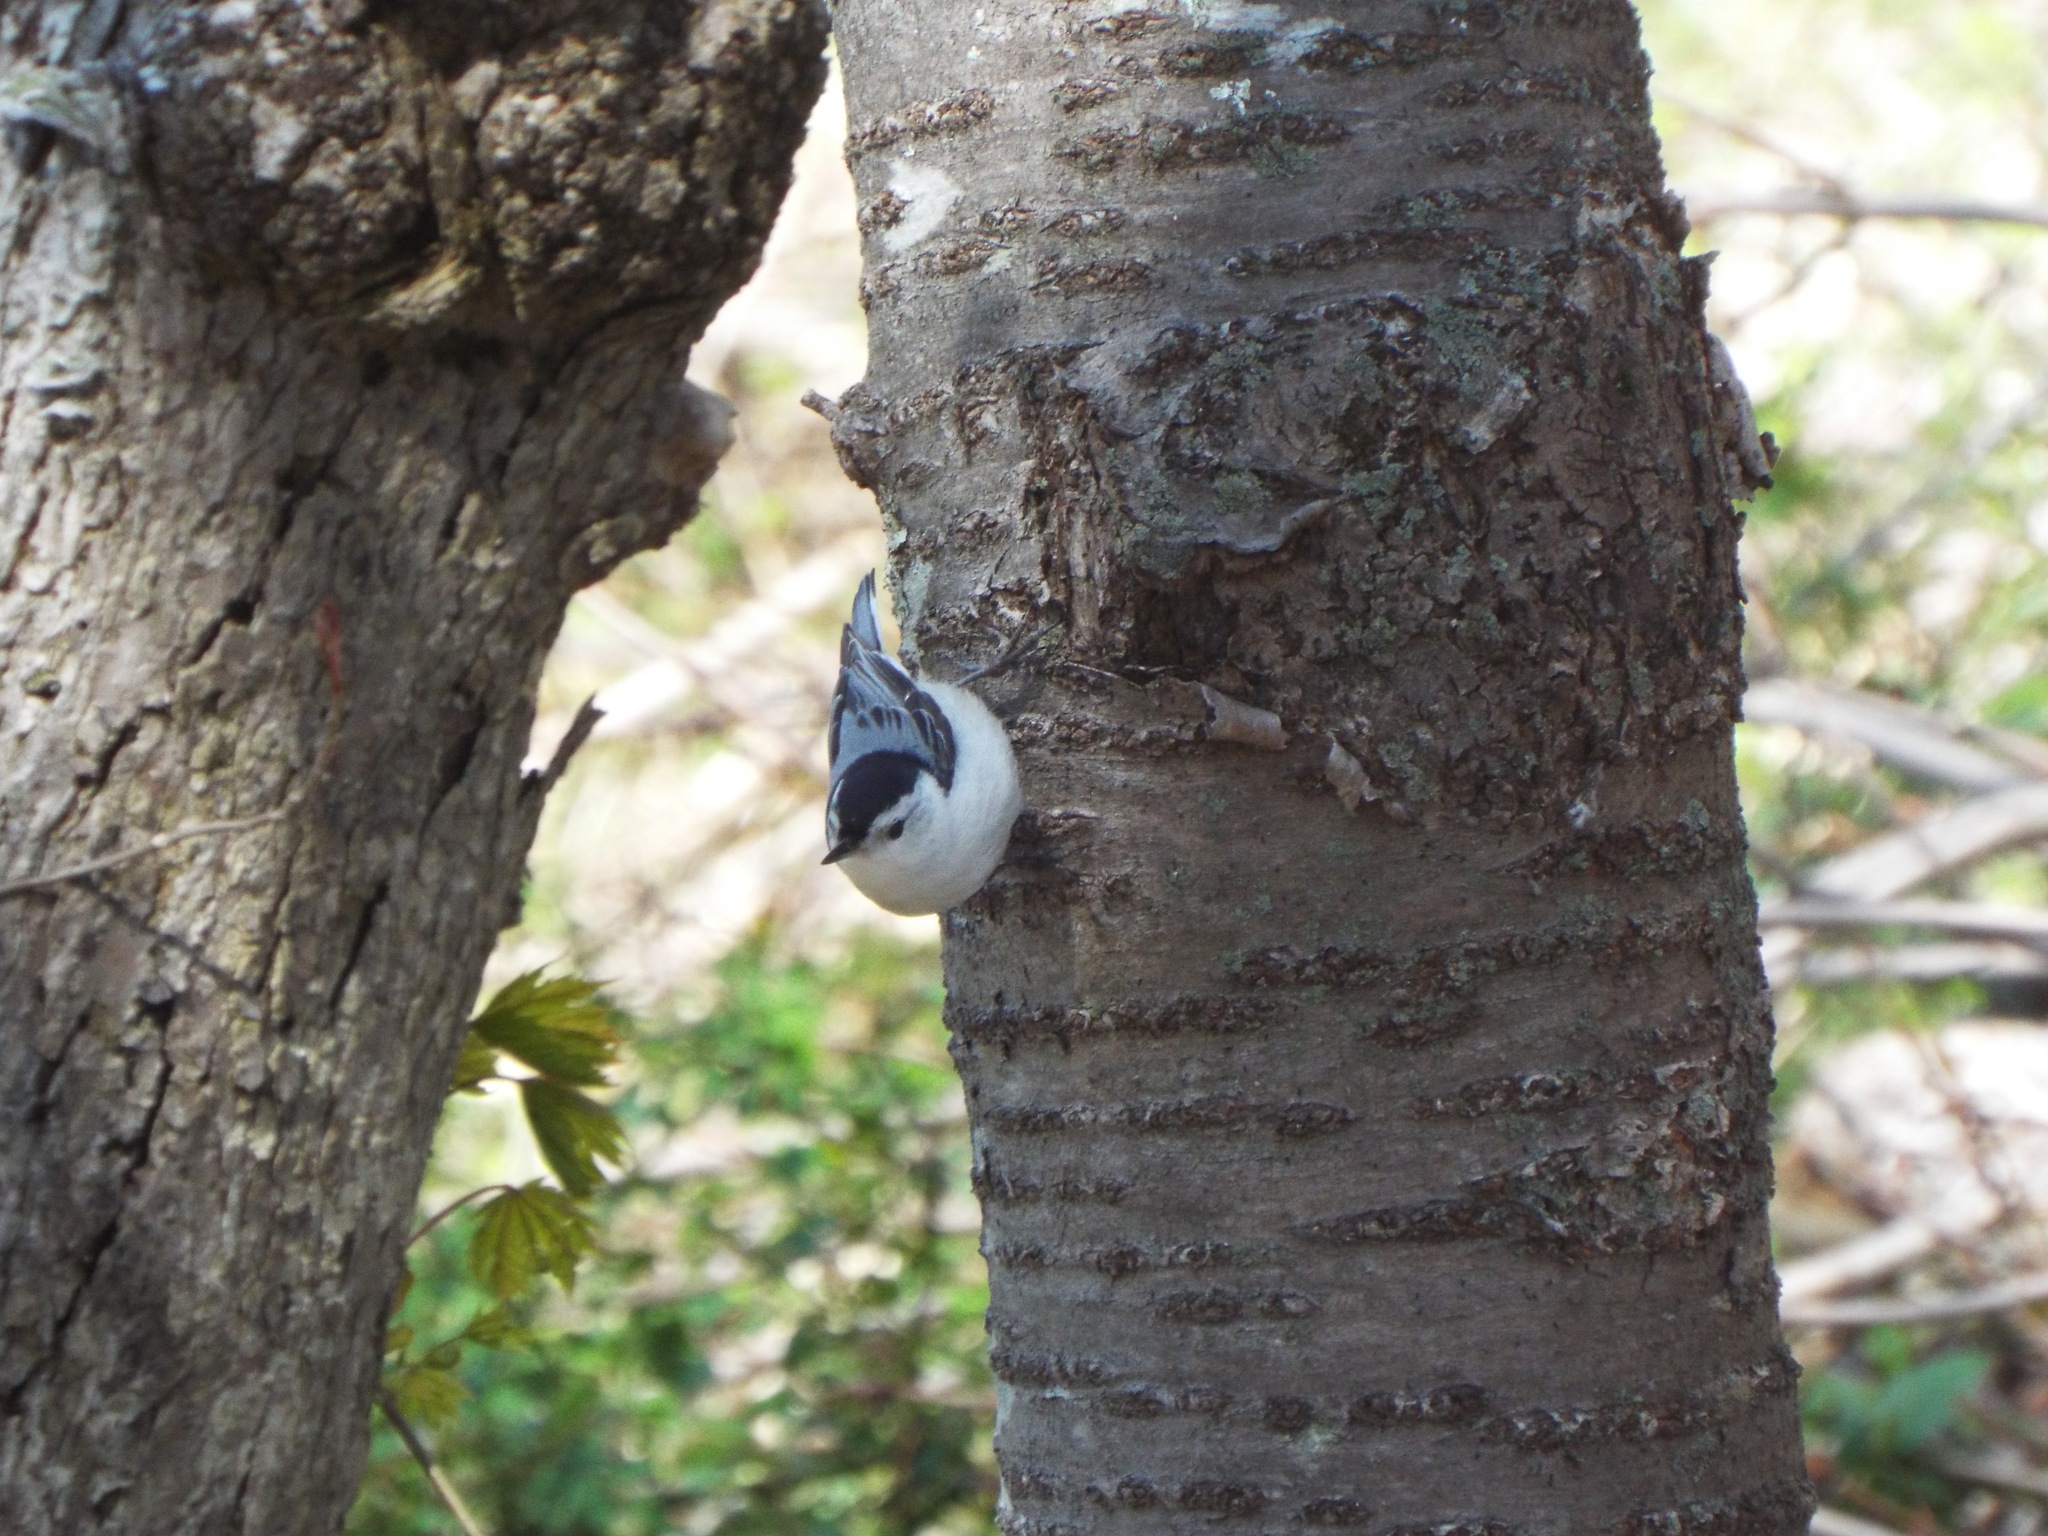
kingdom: Animalia
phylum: Chordata
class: Aves
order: Passeriformes
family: Sittidae
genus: Sitta
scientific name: Sitta carolinensis
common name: White-breasted nuthatch
